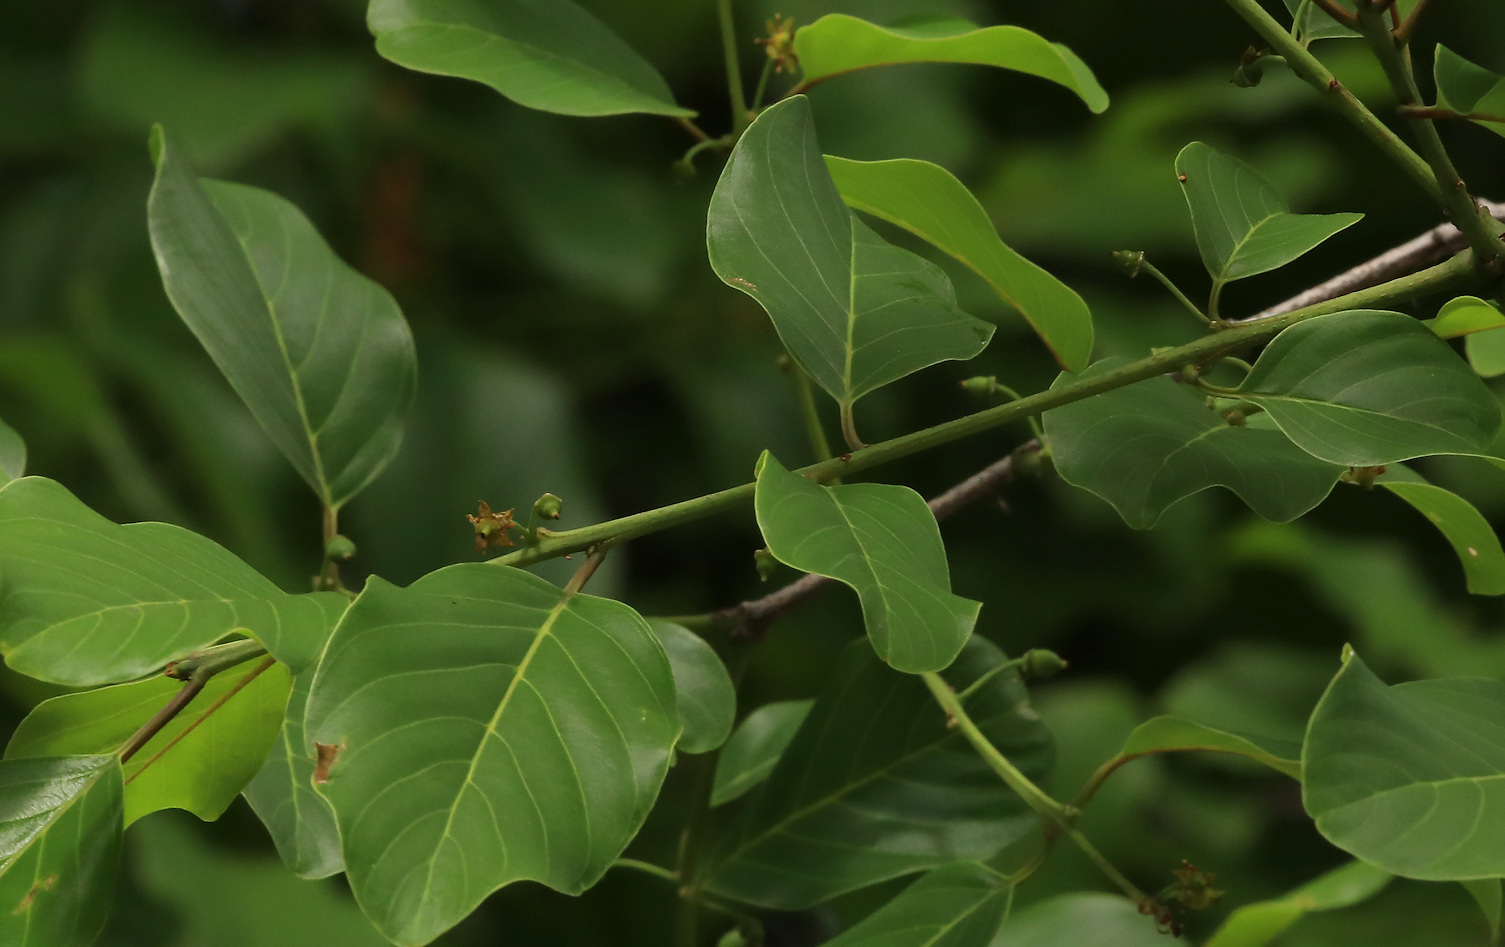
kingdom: Plantae
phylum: Tracheophyta
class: Magnoliopsida
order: Rosales
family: Rhamnaceae
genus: Phyllogeiton
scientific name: Phyllogeiton discolor
